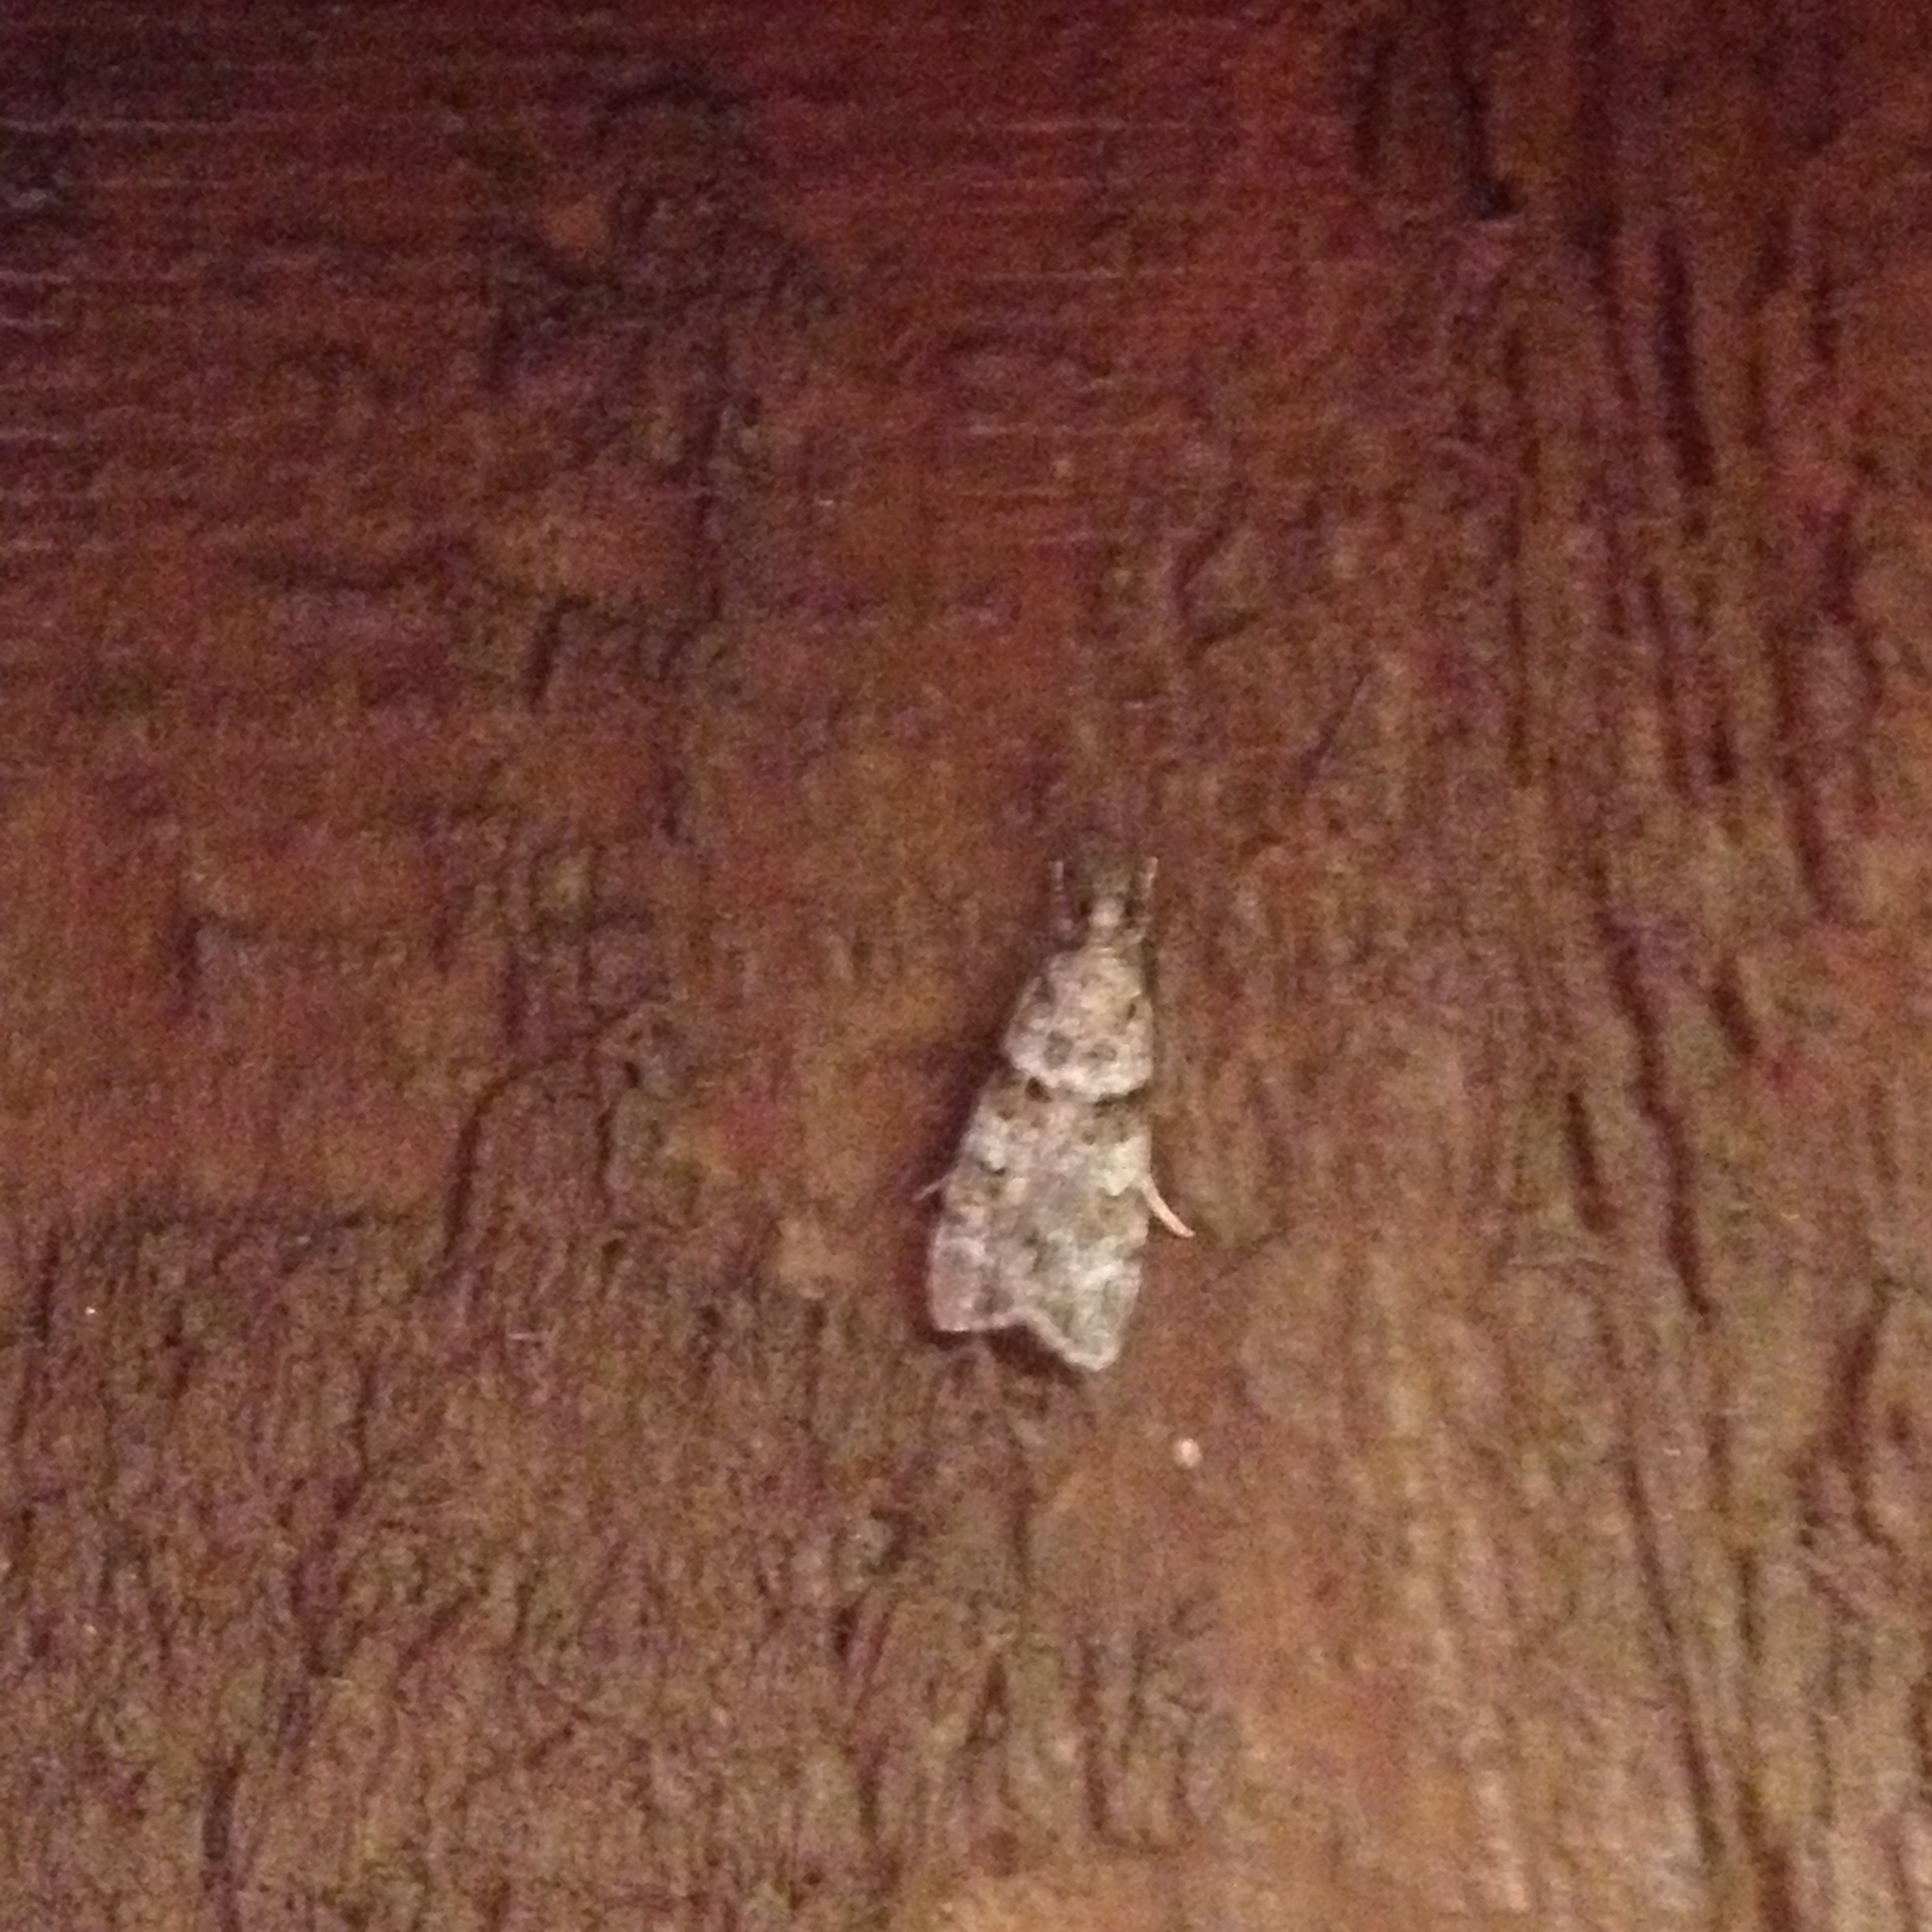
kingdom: Animalia
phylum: Arthropoda
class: Insecta
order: Lepidoptera
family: Crambidae
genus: Scoparia
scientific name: Scoparia biplagialis
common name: Double-striped scoparia moth
